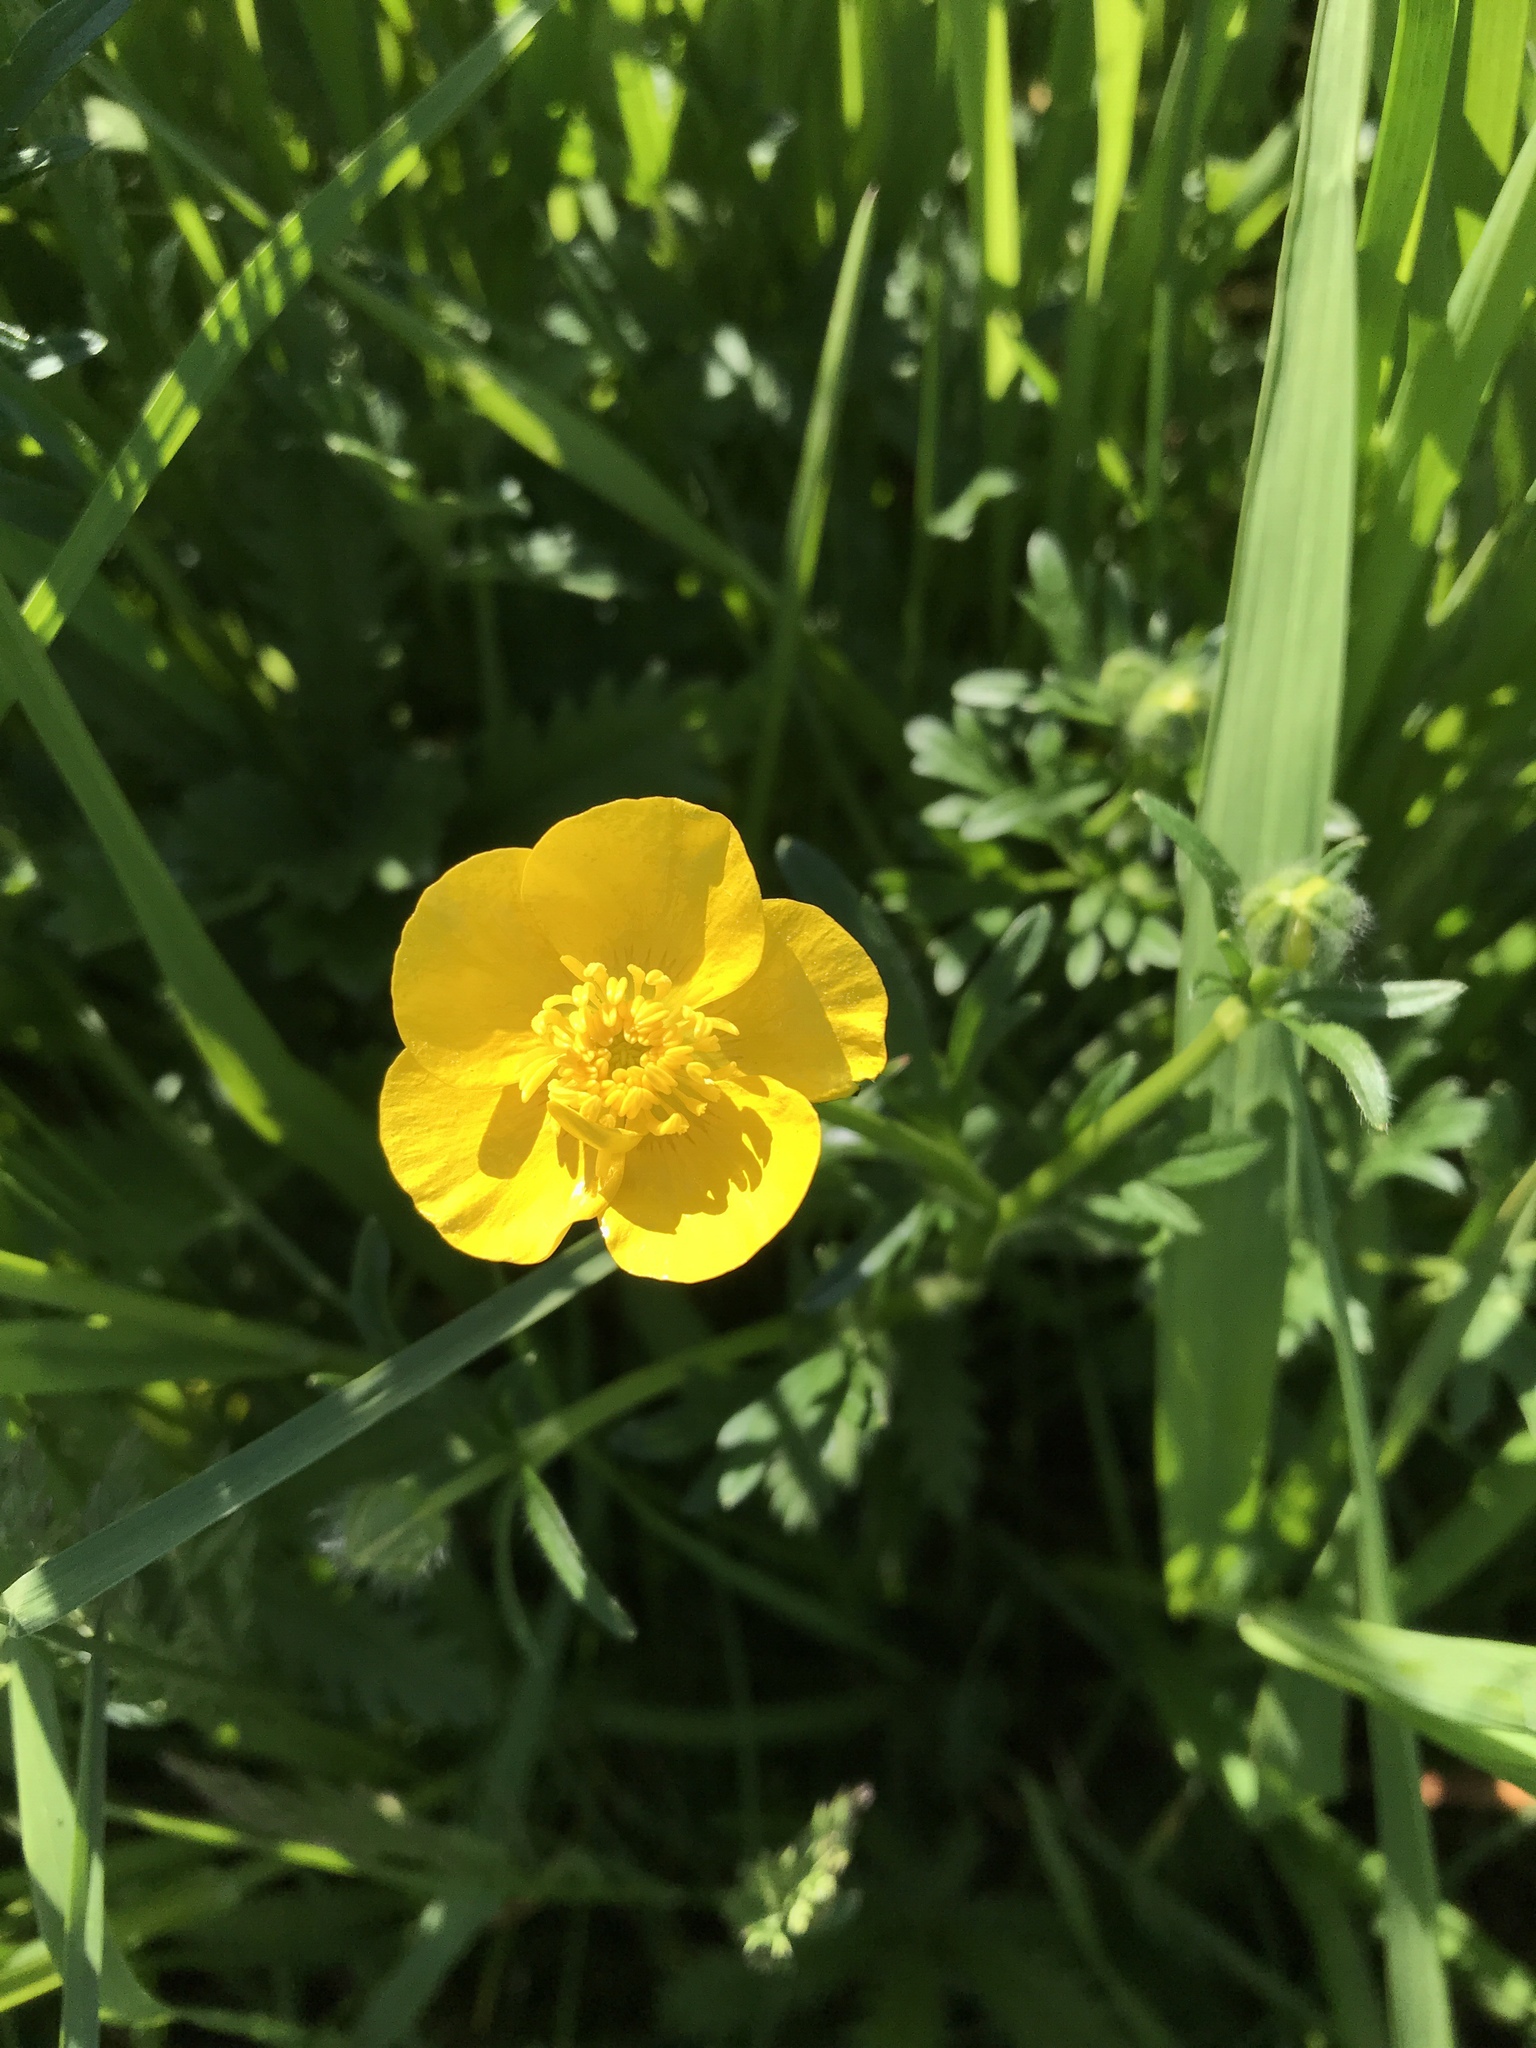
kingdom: Plantae
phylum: Tracheophyta
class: Magnoliopsida
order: Ranunculales
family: Ranunculaceae
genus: Ranunculus
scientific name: Ranunculus acris
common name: Meadow buttercup
